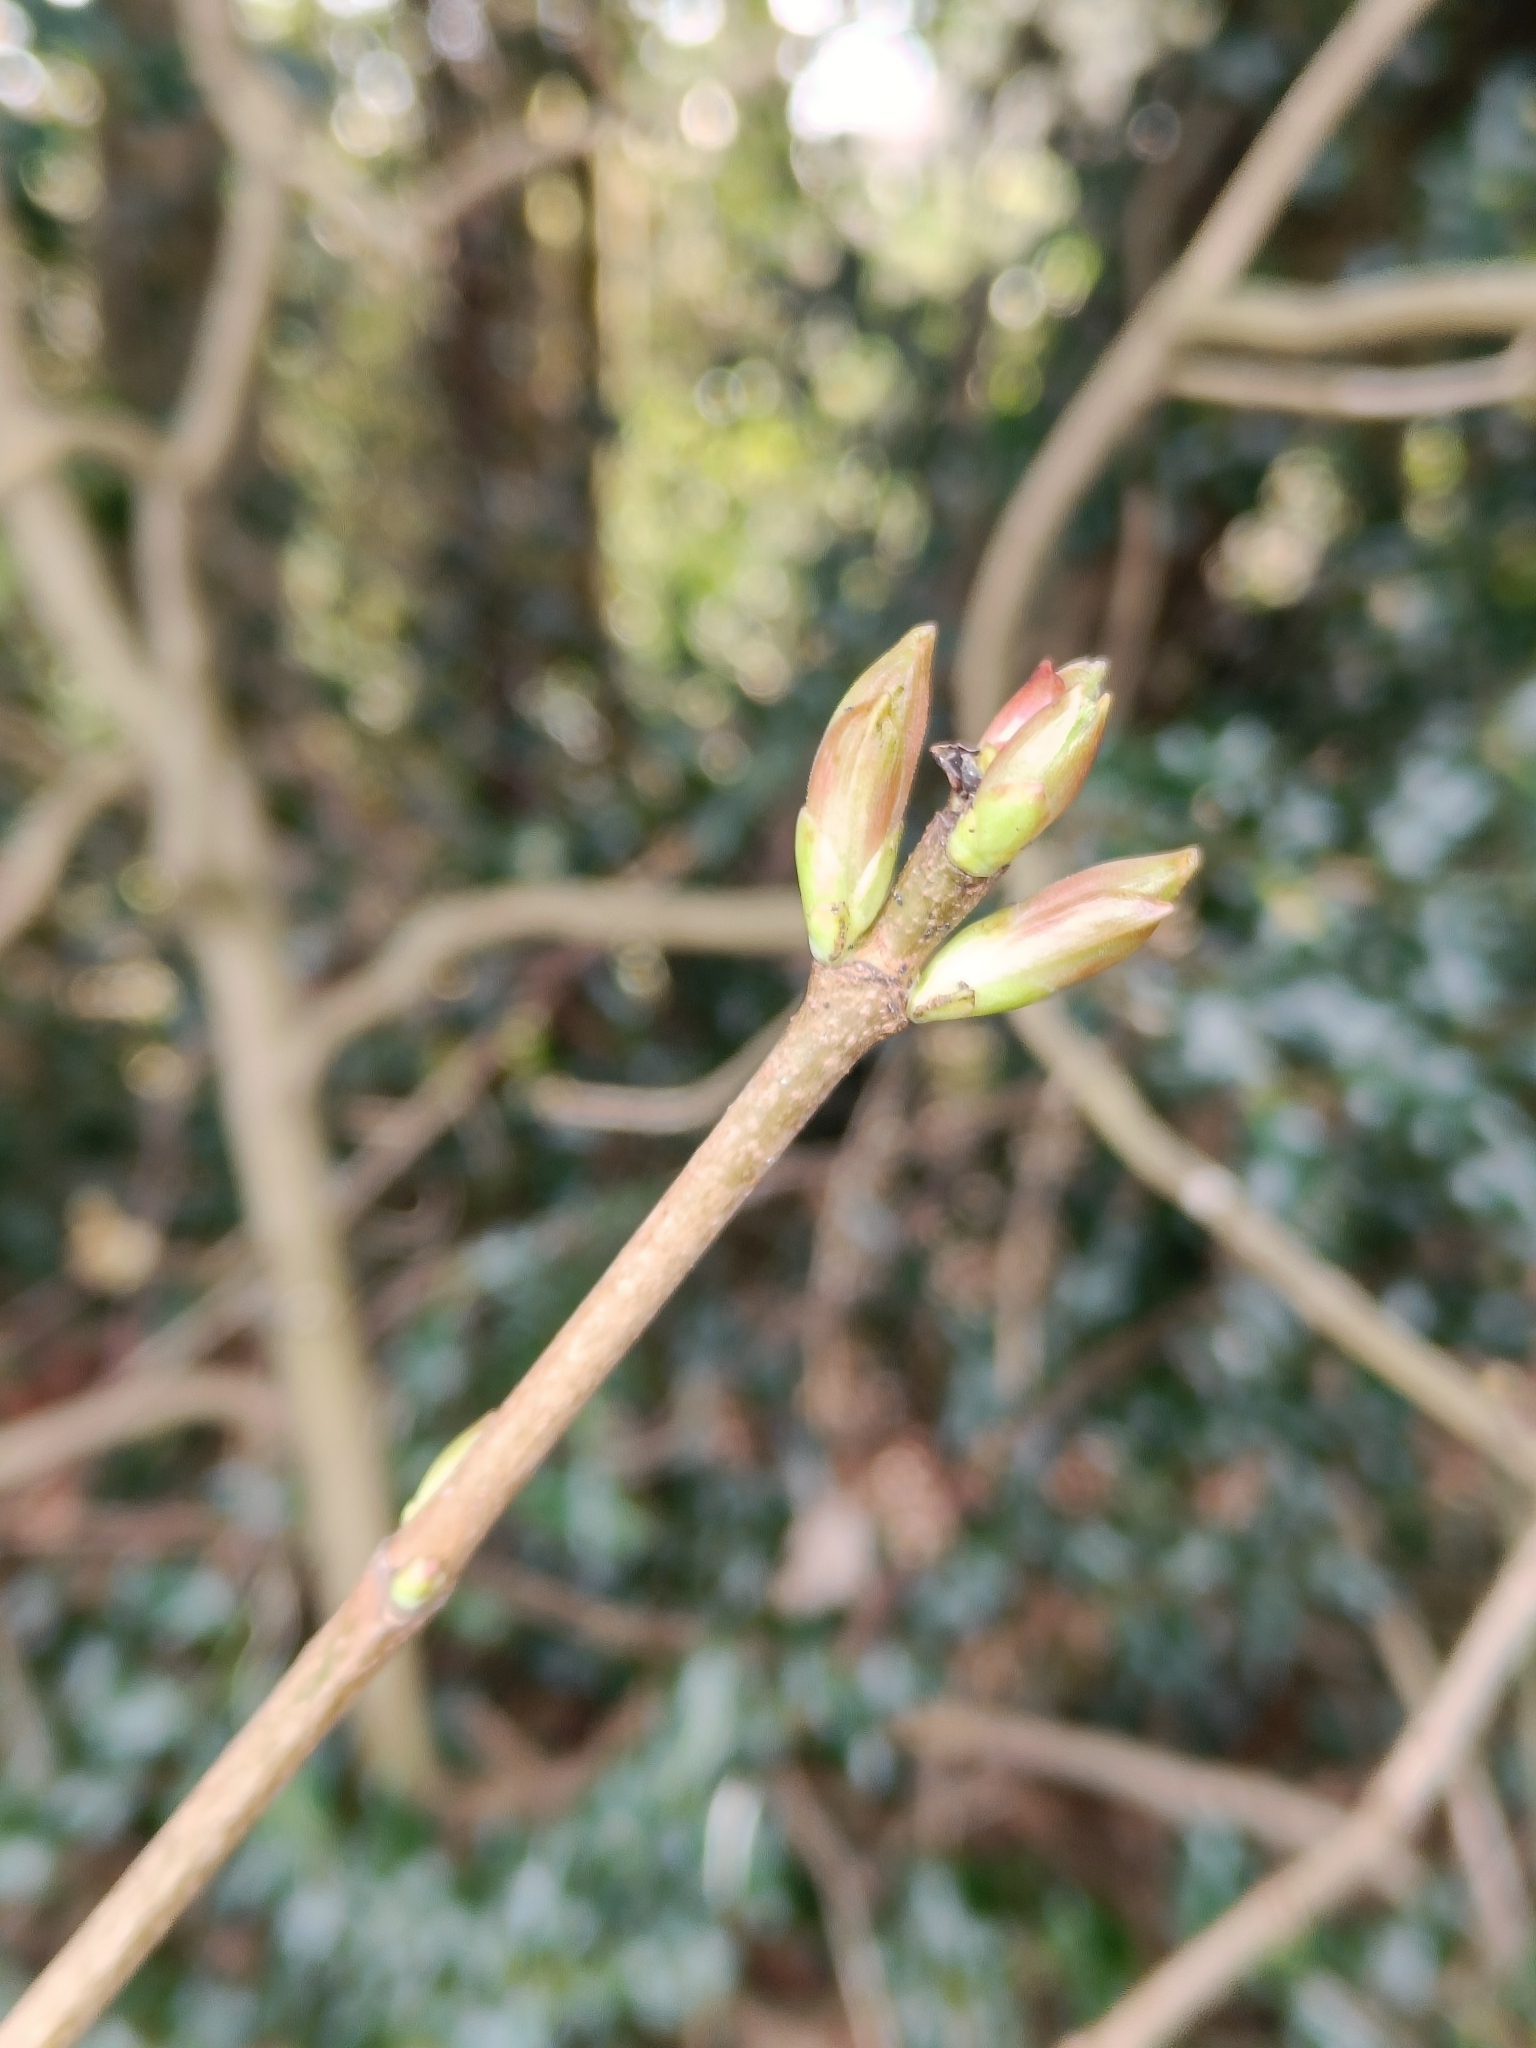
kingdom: Plantae
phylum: Tracheophyta
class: Magnoliopsida
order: Sapindales
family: Sapindaceae
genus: Acer
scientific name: Acer platanoides
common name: Norway maple
